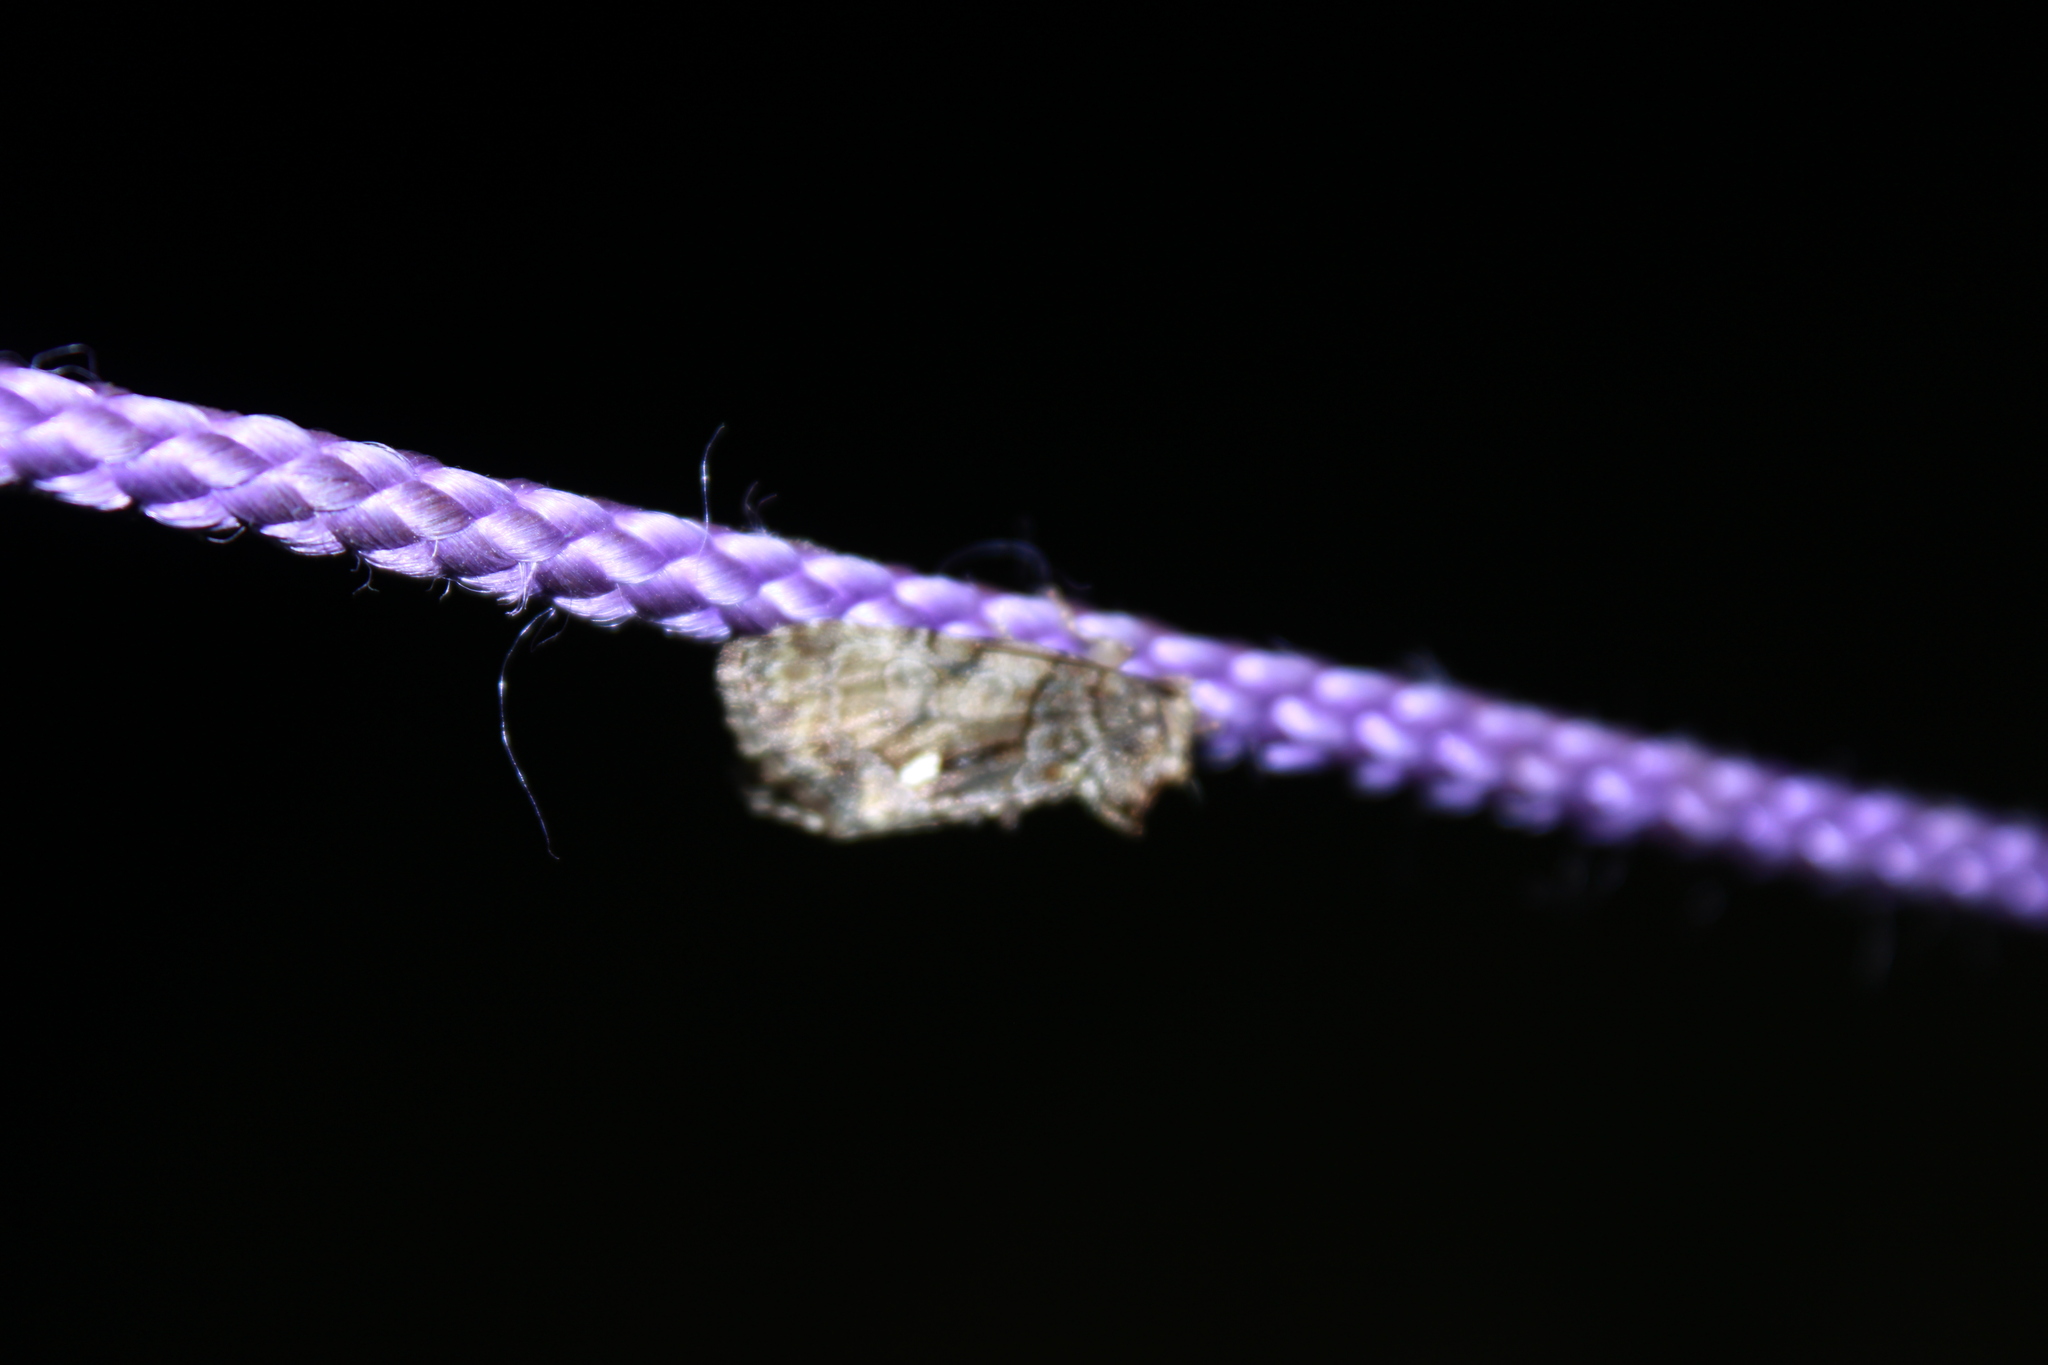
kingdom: Animalia
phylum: Arthropoda
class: Insecta
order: Lepidoptera
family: Noctuidae
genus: Chytonix
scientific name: Chytonix palliatricula
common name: Cloaked marvel
